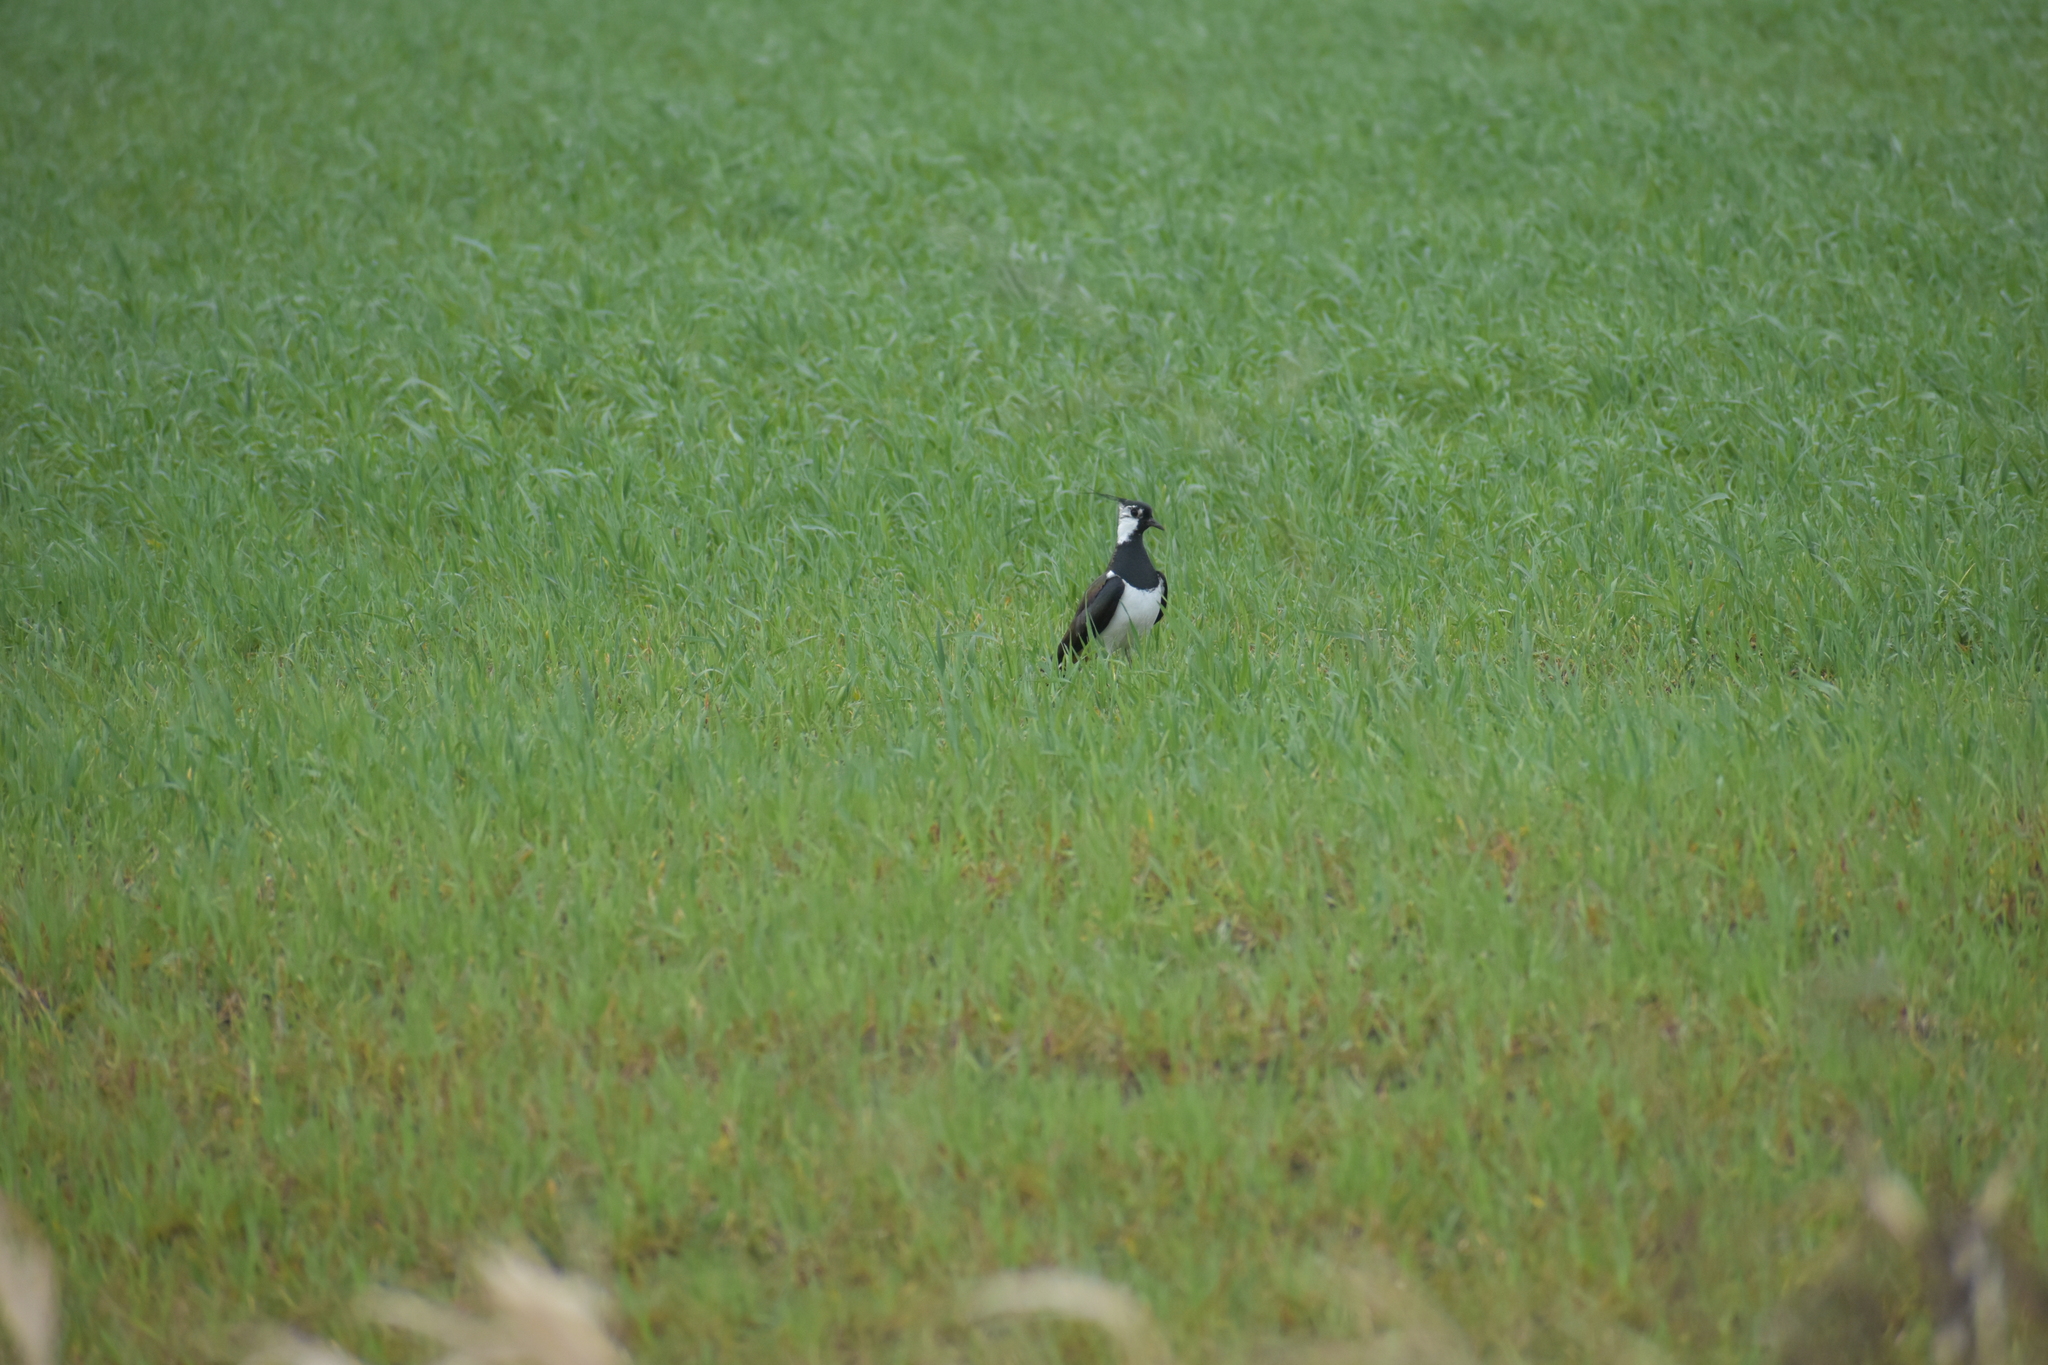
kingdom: Animalia
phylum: Chordata
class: Aves
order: Charadriiformes
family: Charadriidae
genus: Vanellus
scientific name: Vanellus vanellus
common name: Northern lapwing
